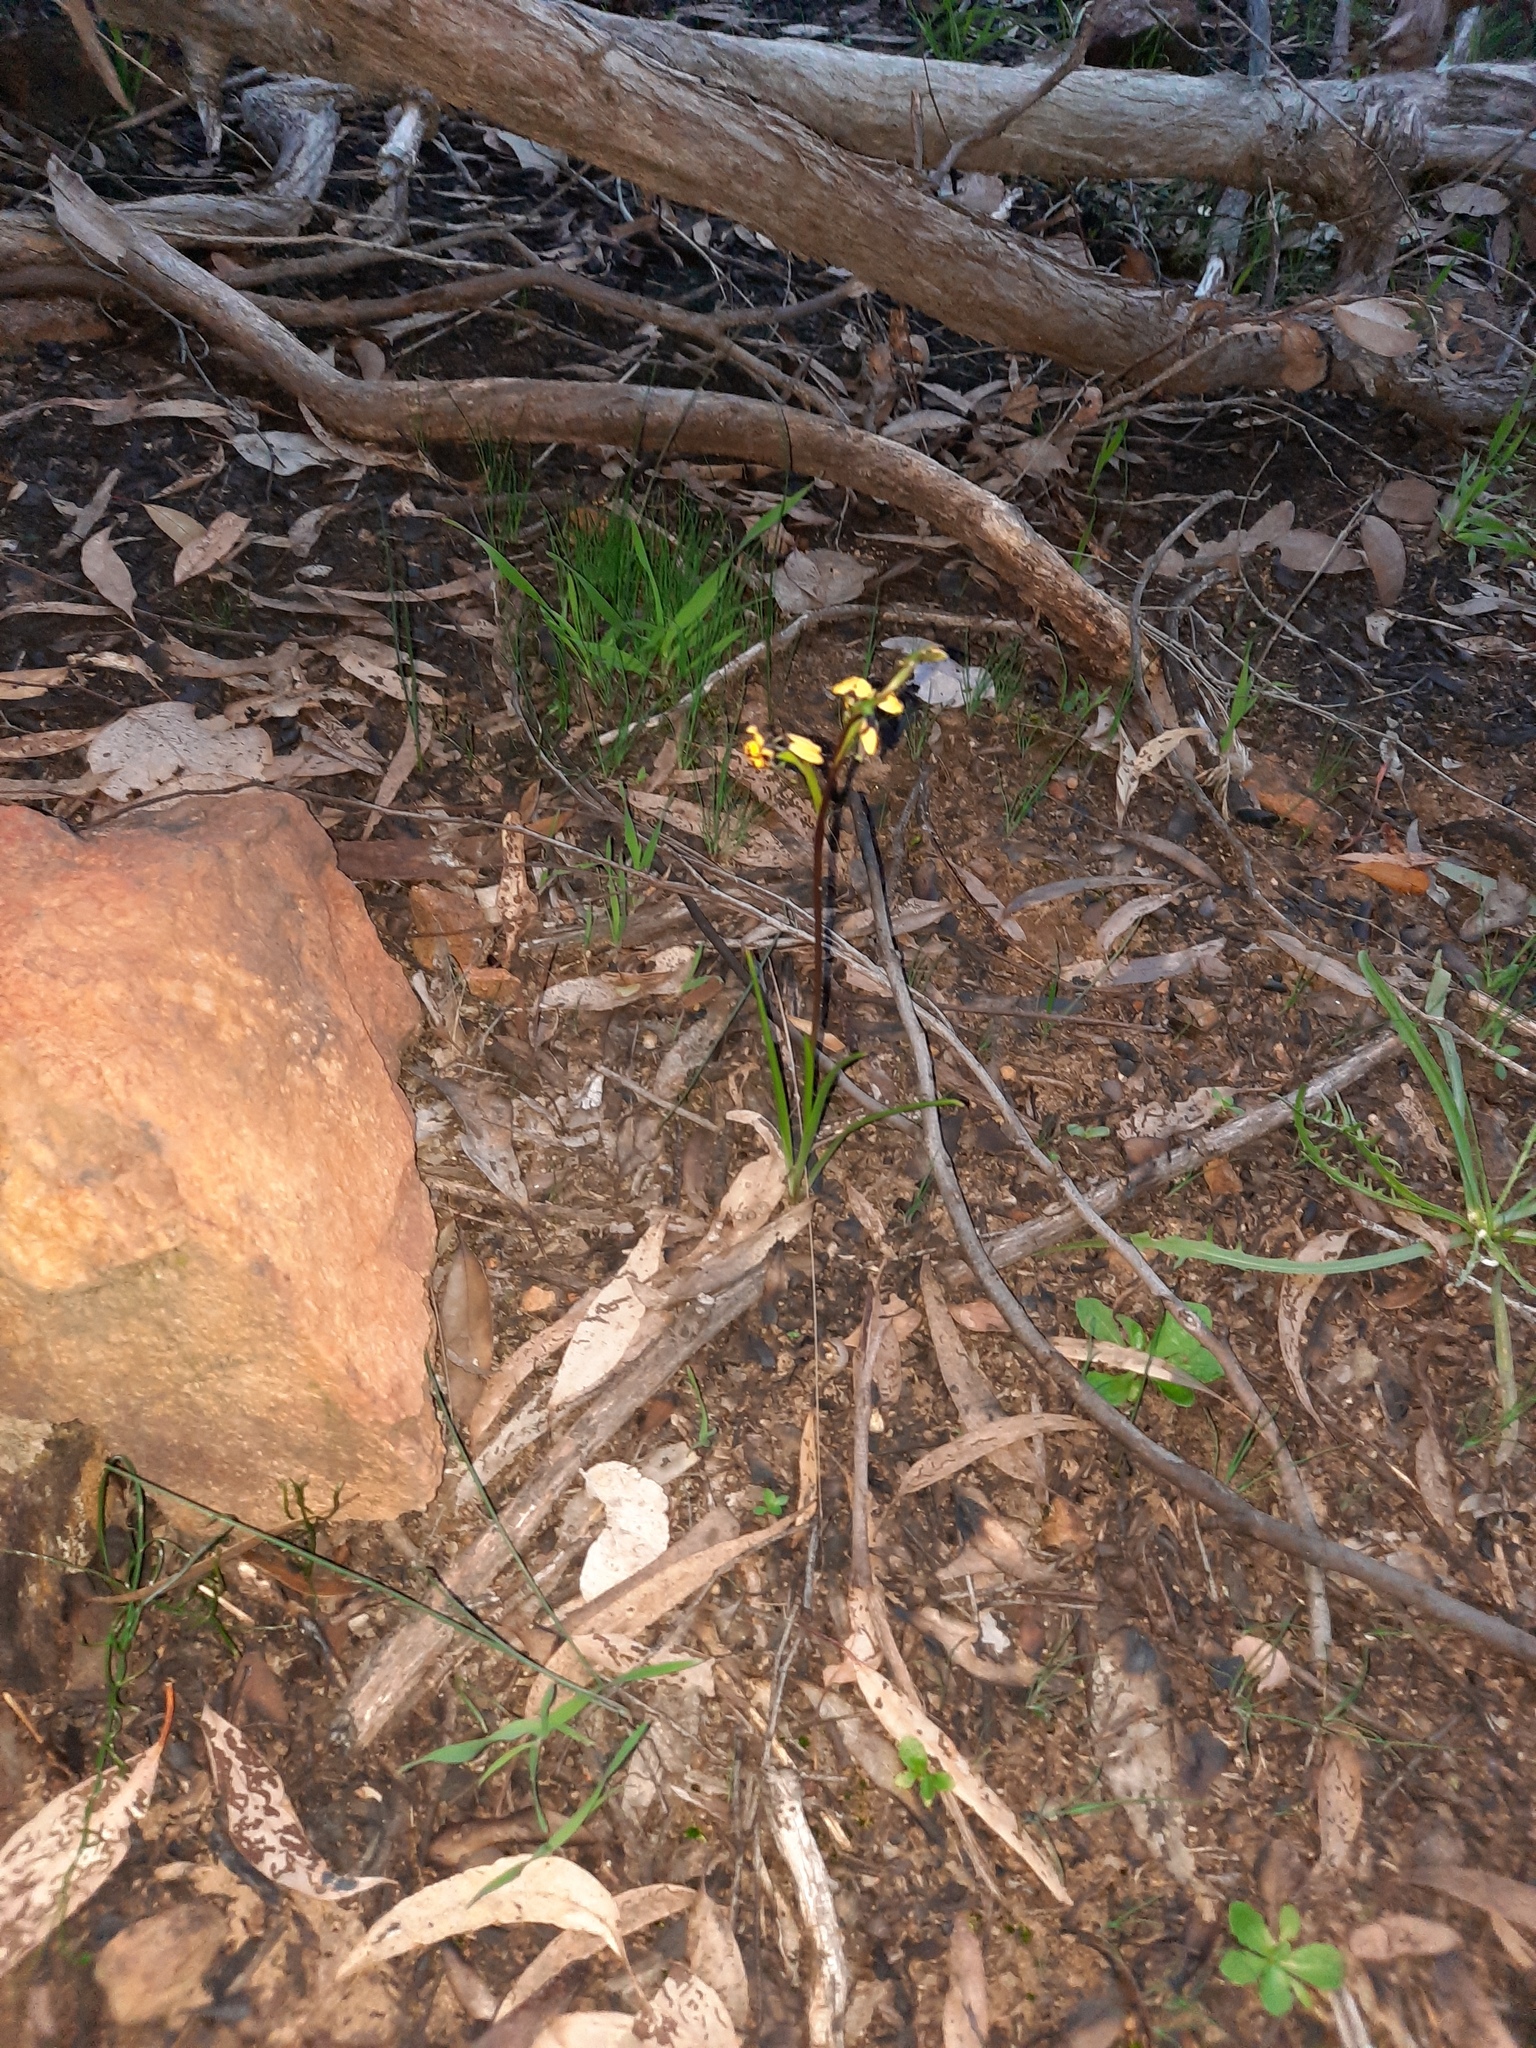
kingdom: Plantae
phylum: Tracheophyta
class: Liliopsida
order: Asparagales
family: Orchidaceae
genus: Diuris
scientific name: Diuris pardina
